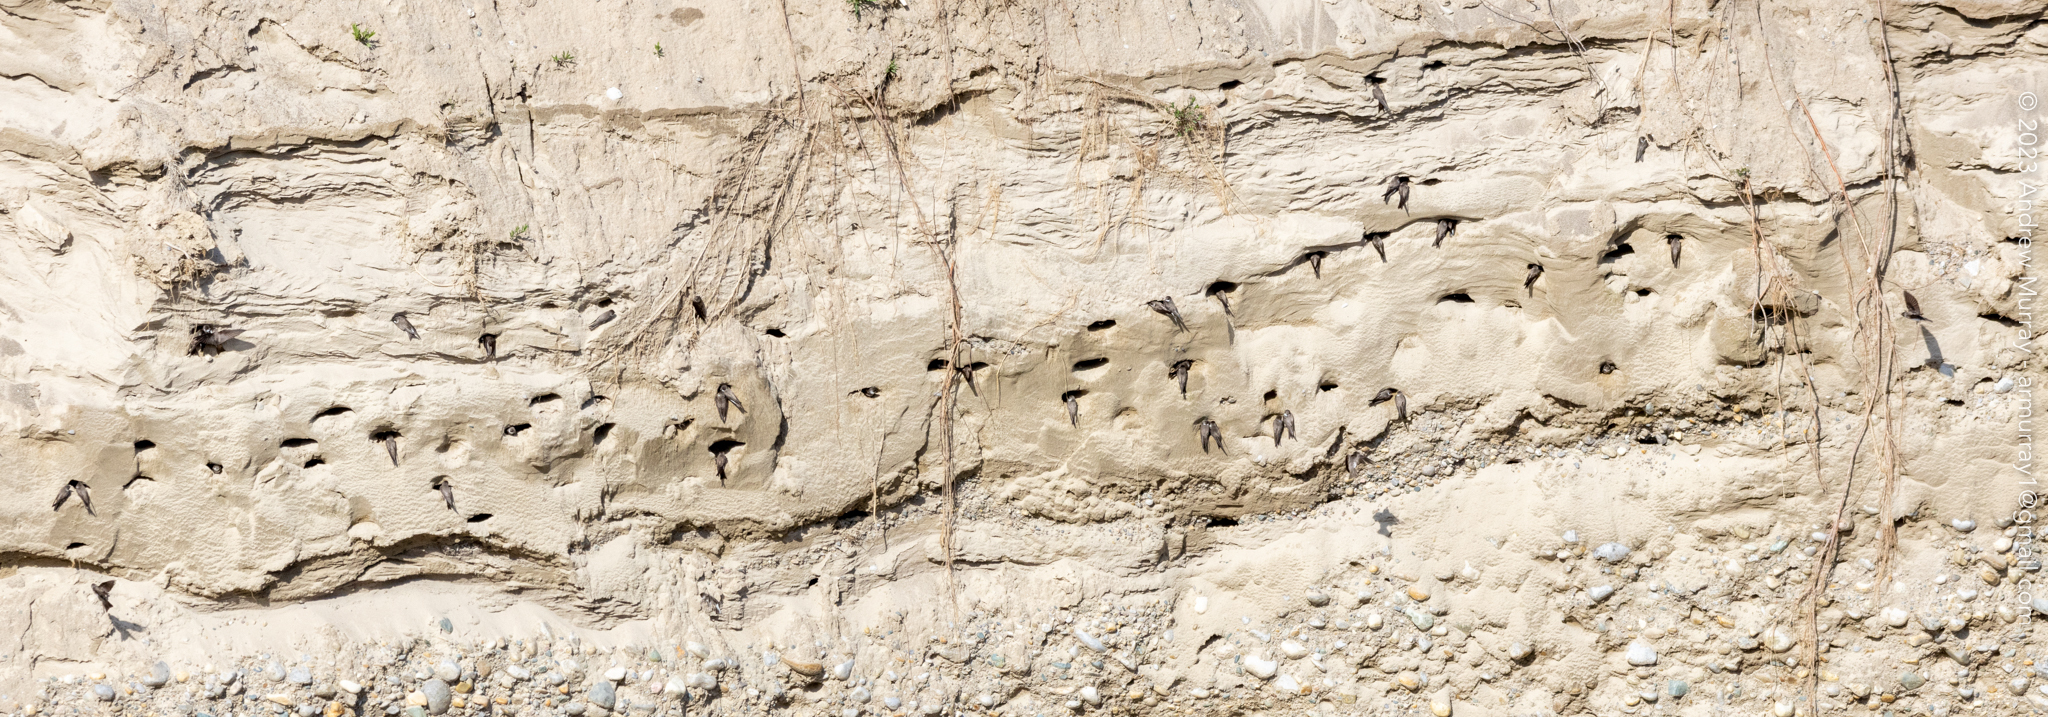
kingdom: Animalia
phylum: Chordata
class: Aves
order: Passeriformes
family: Hirundinidae
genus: Riparia
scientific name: Riparia riparia
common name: Sand martin
